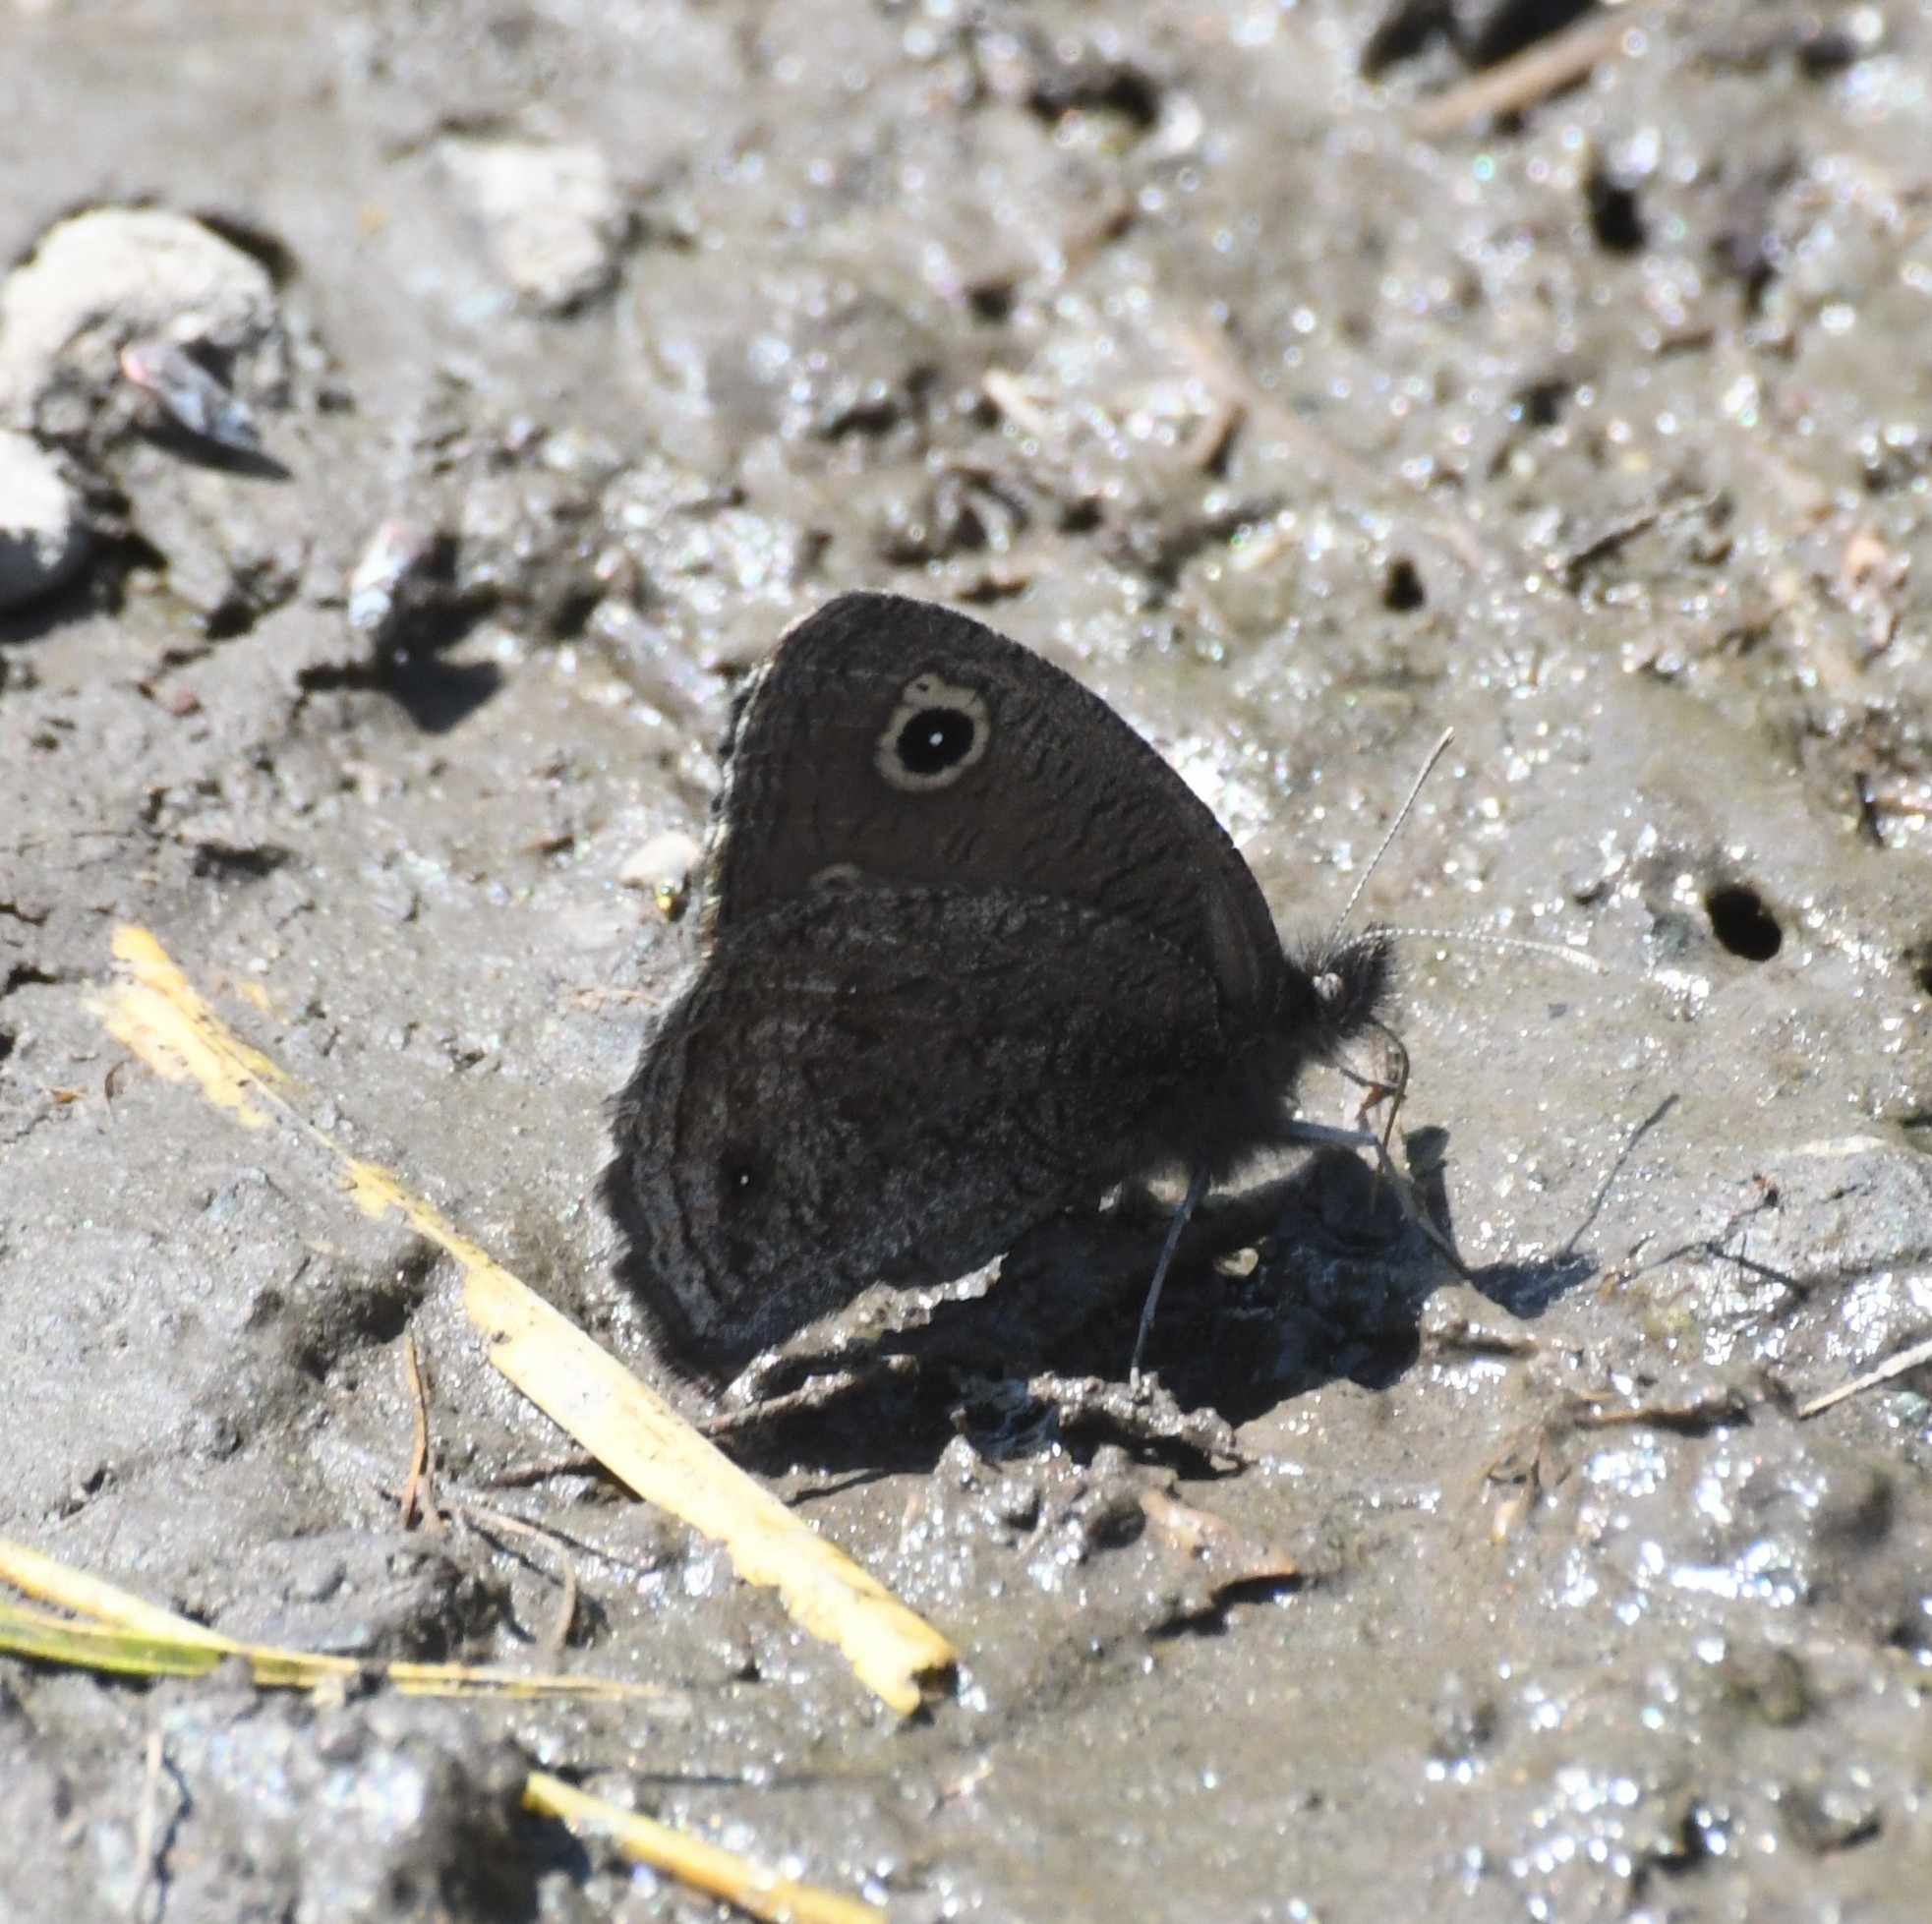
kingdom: Animalia
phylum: Arthropoda
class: Insecta
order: Lepidoptera
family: Nymphalidae
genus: Cercyonis
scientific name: Cercyonis oetus
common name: Small wood-nymph
